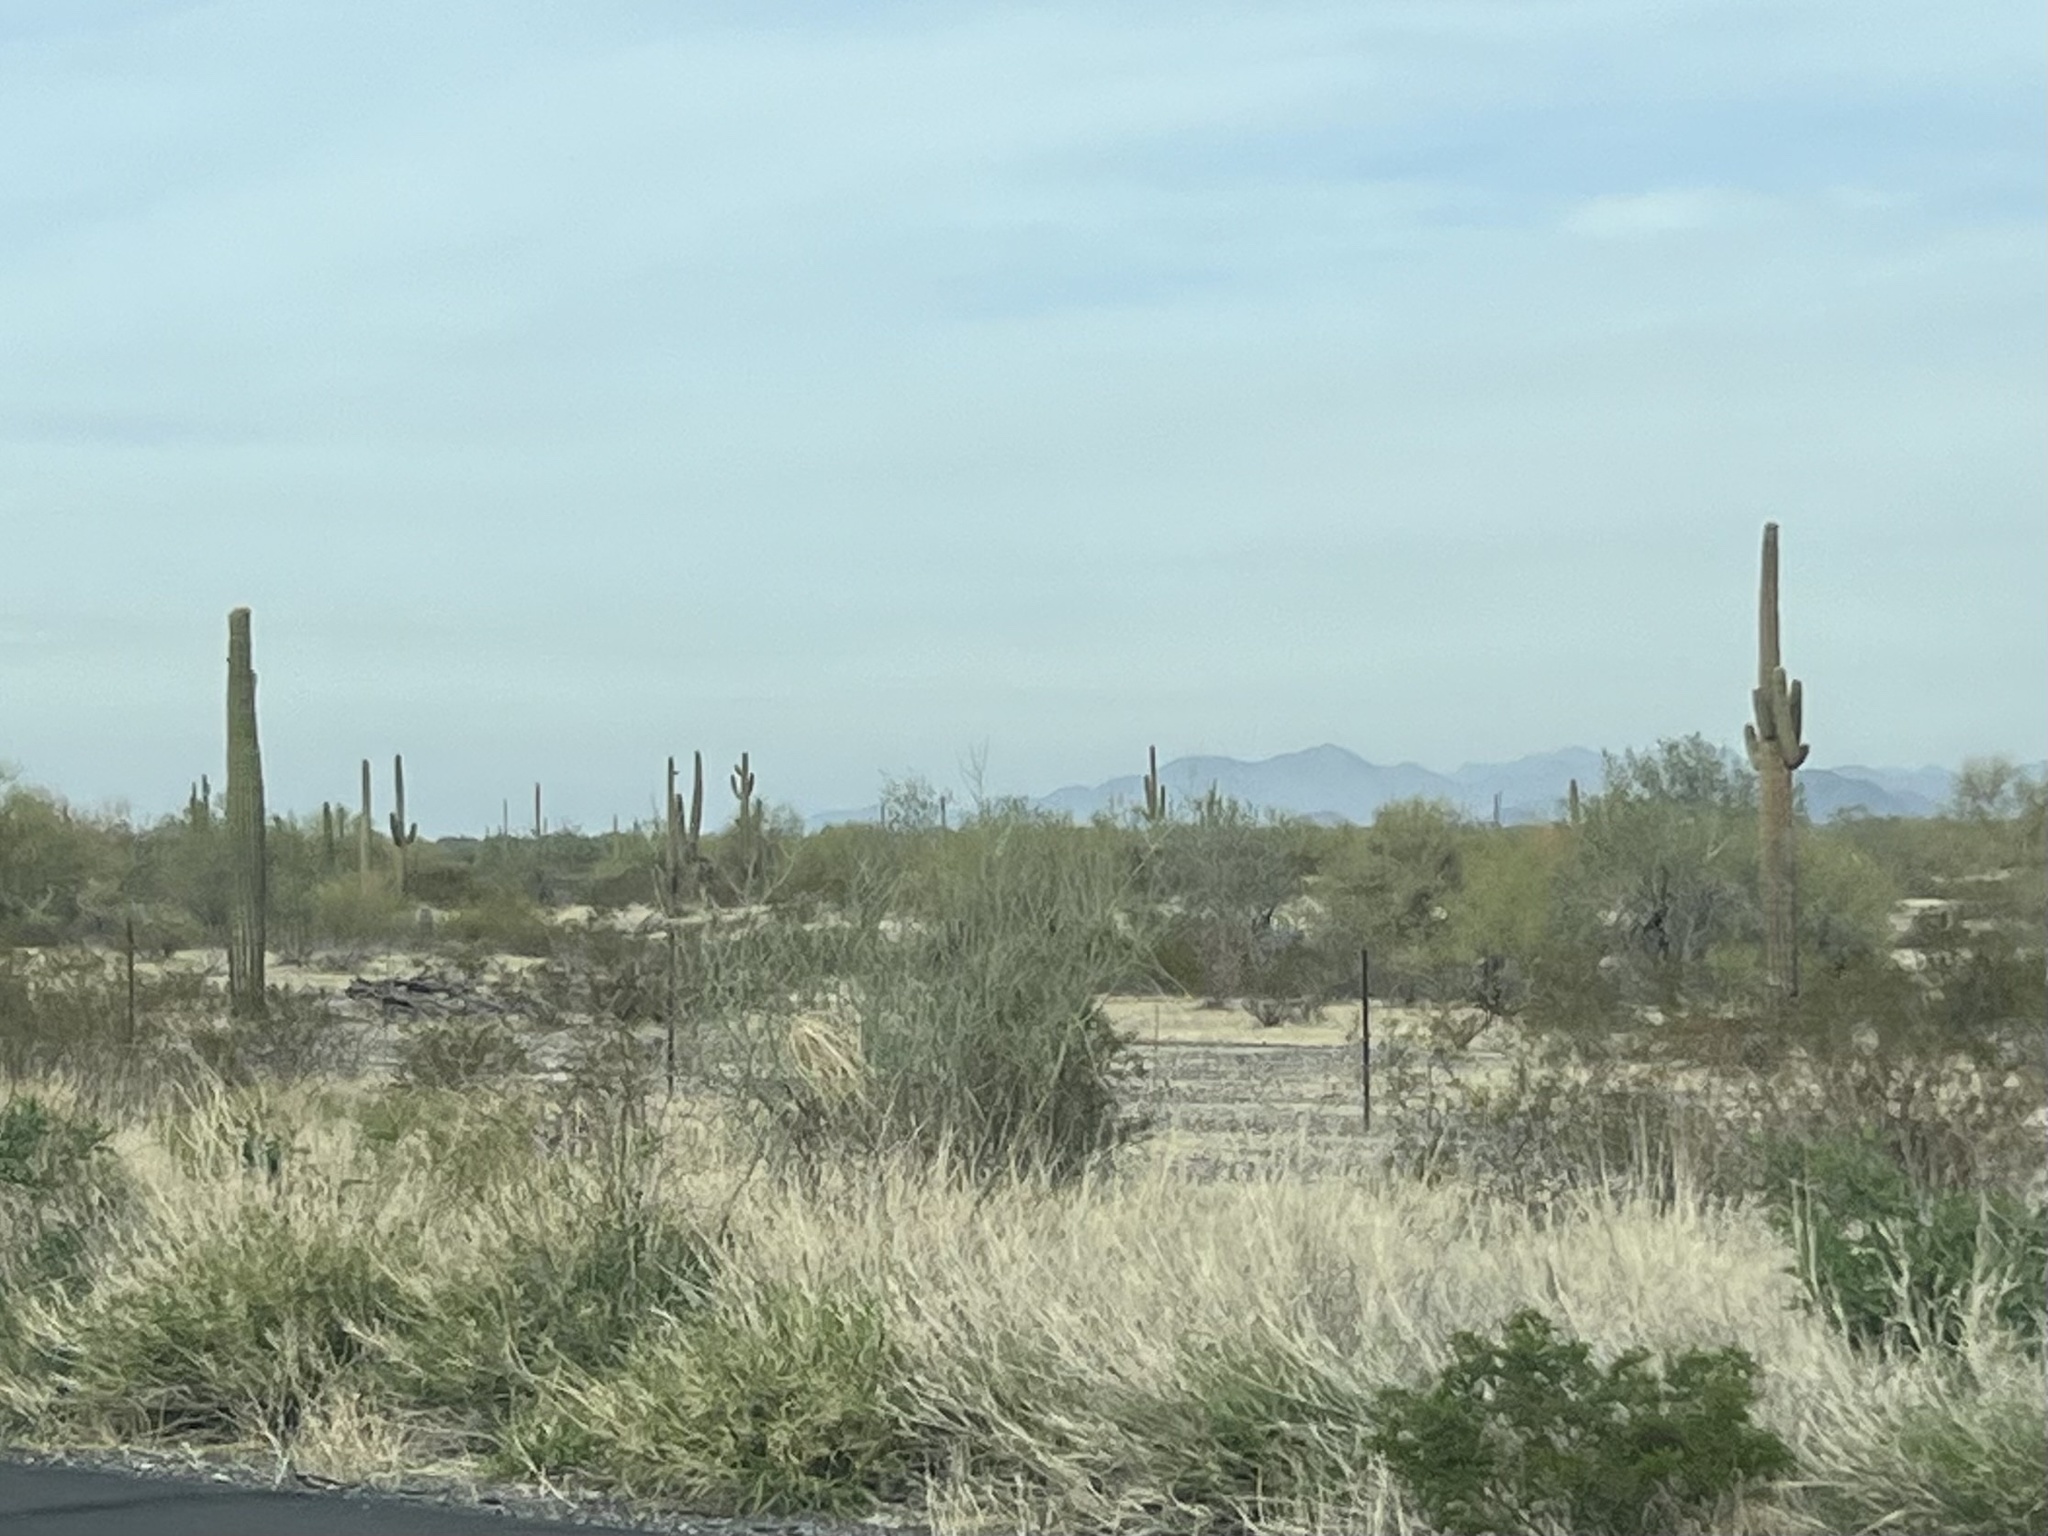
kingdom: Plantae
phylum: Tracheophyta
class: Magnoliopsida
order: Caryophyllales
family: Cactaceae
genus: Carnegiea
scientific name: Carnegiea gigantea
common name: Saguaro
